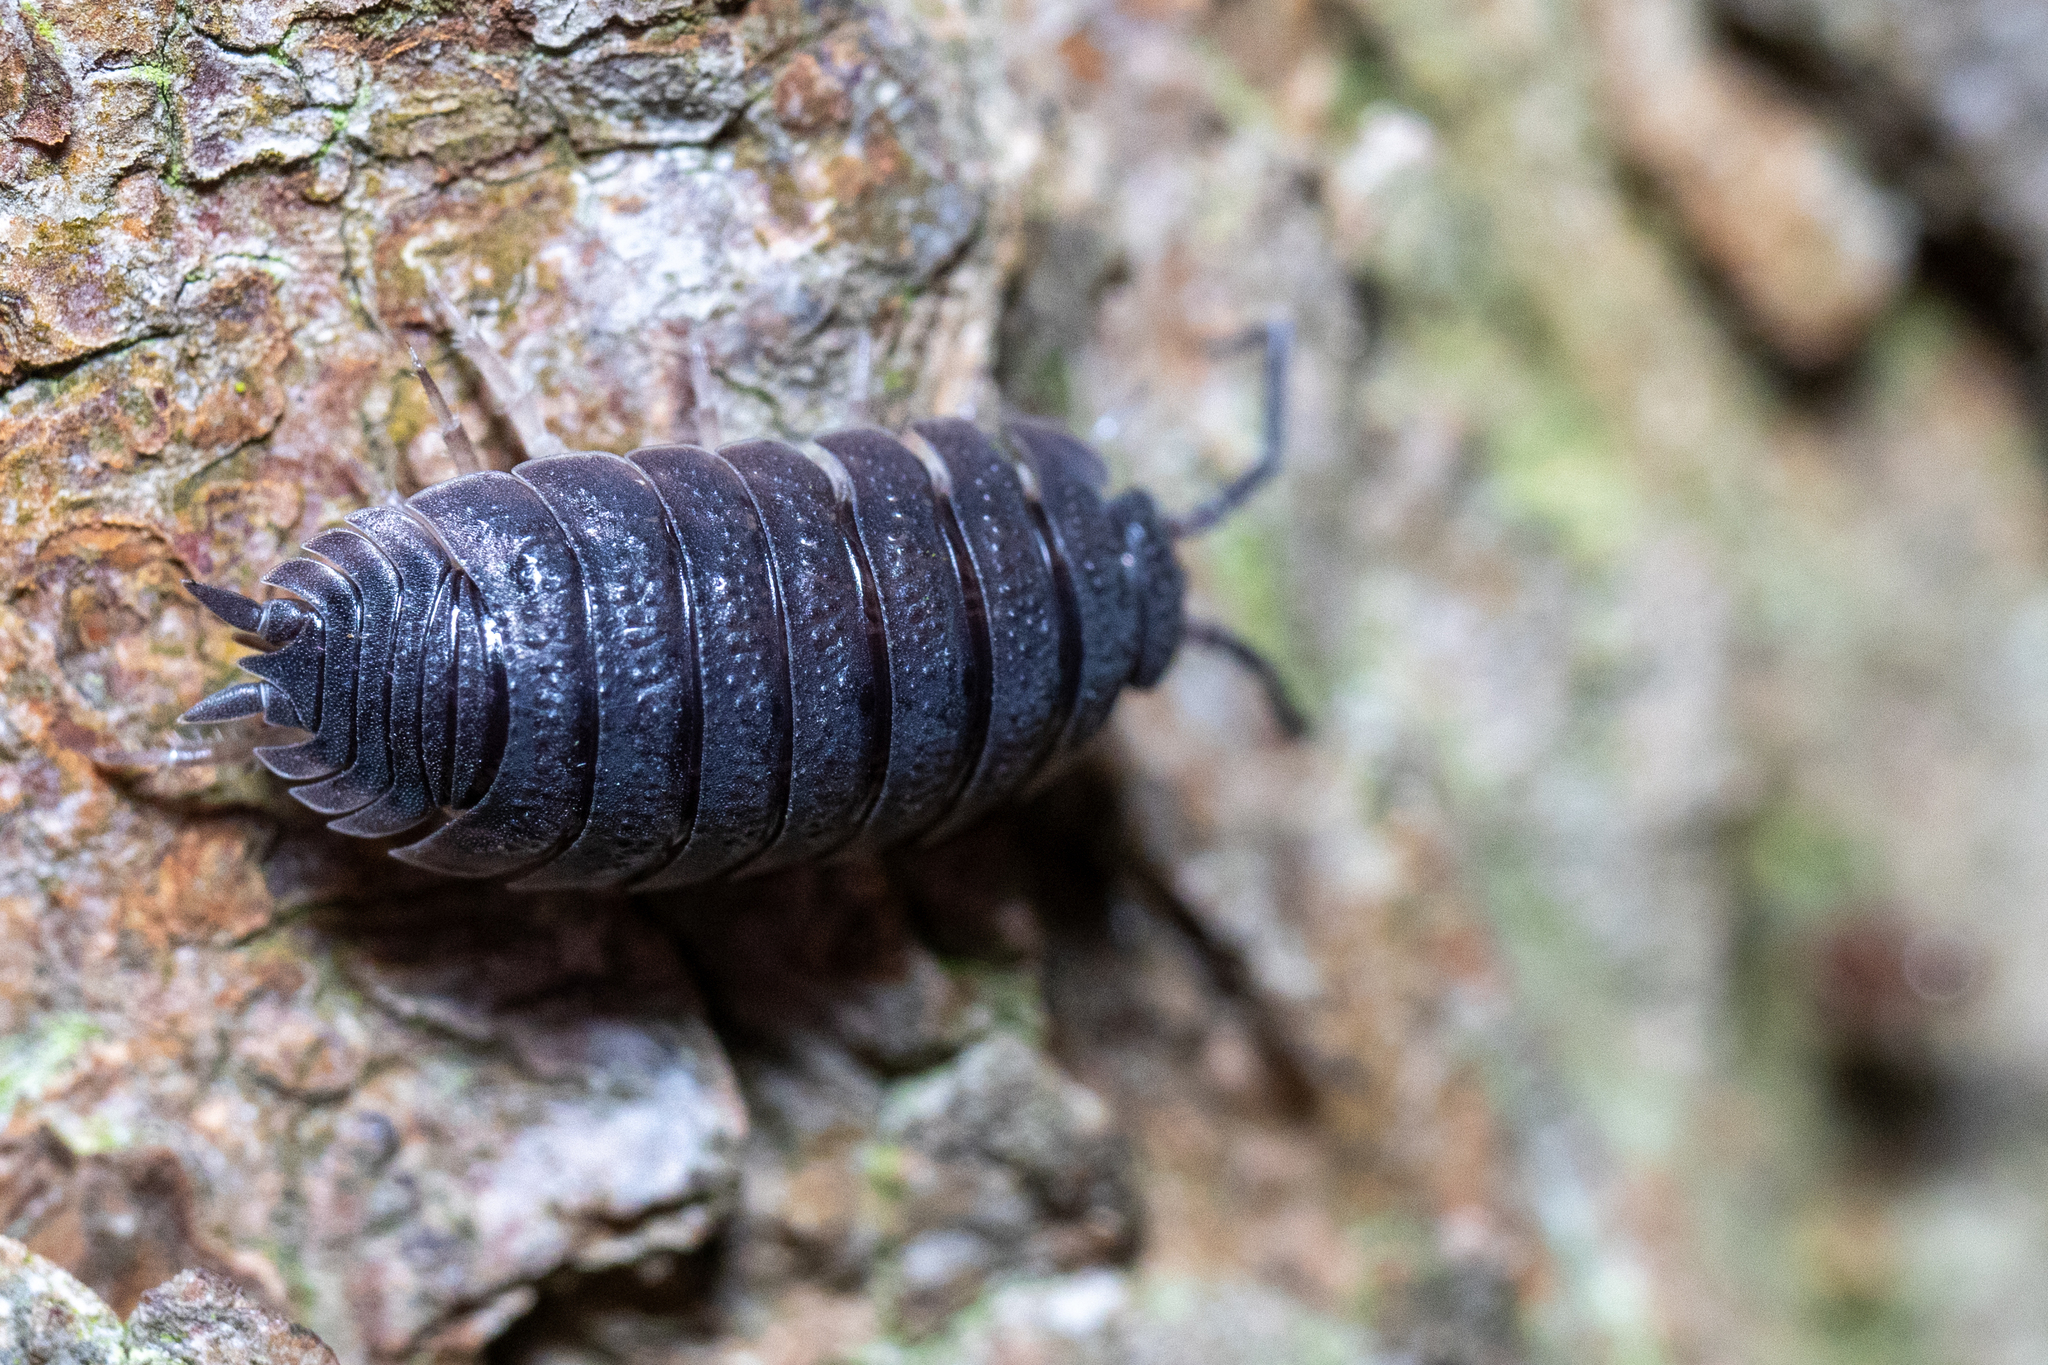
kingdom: Animalia
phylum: Arthropoda
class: Malacostraca
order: Isopoda
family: Porcellionidae
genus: Porcellio
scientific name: Porcellio scaber
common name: Common rough woodlouse
